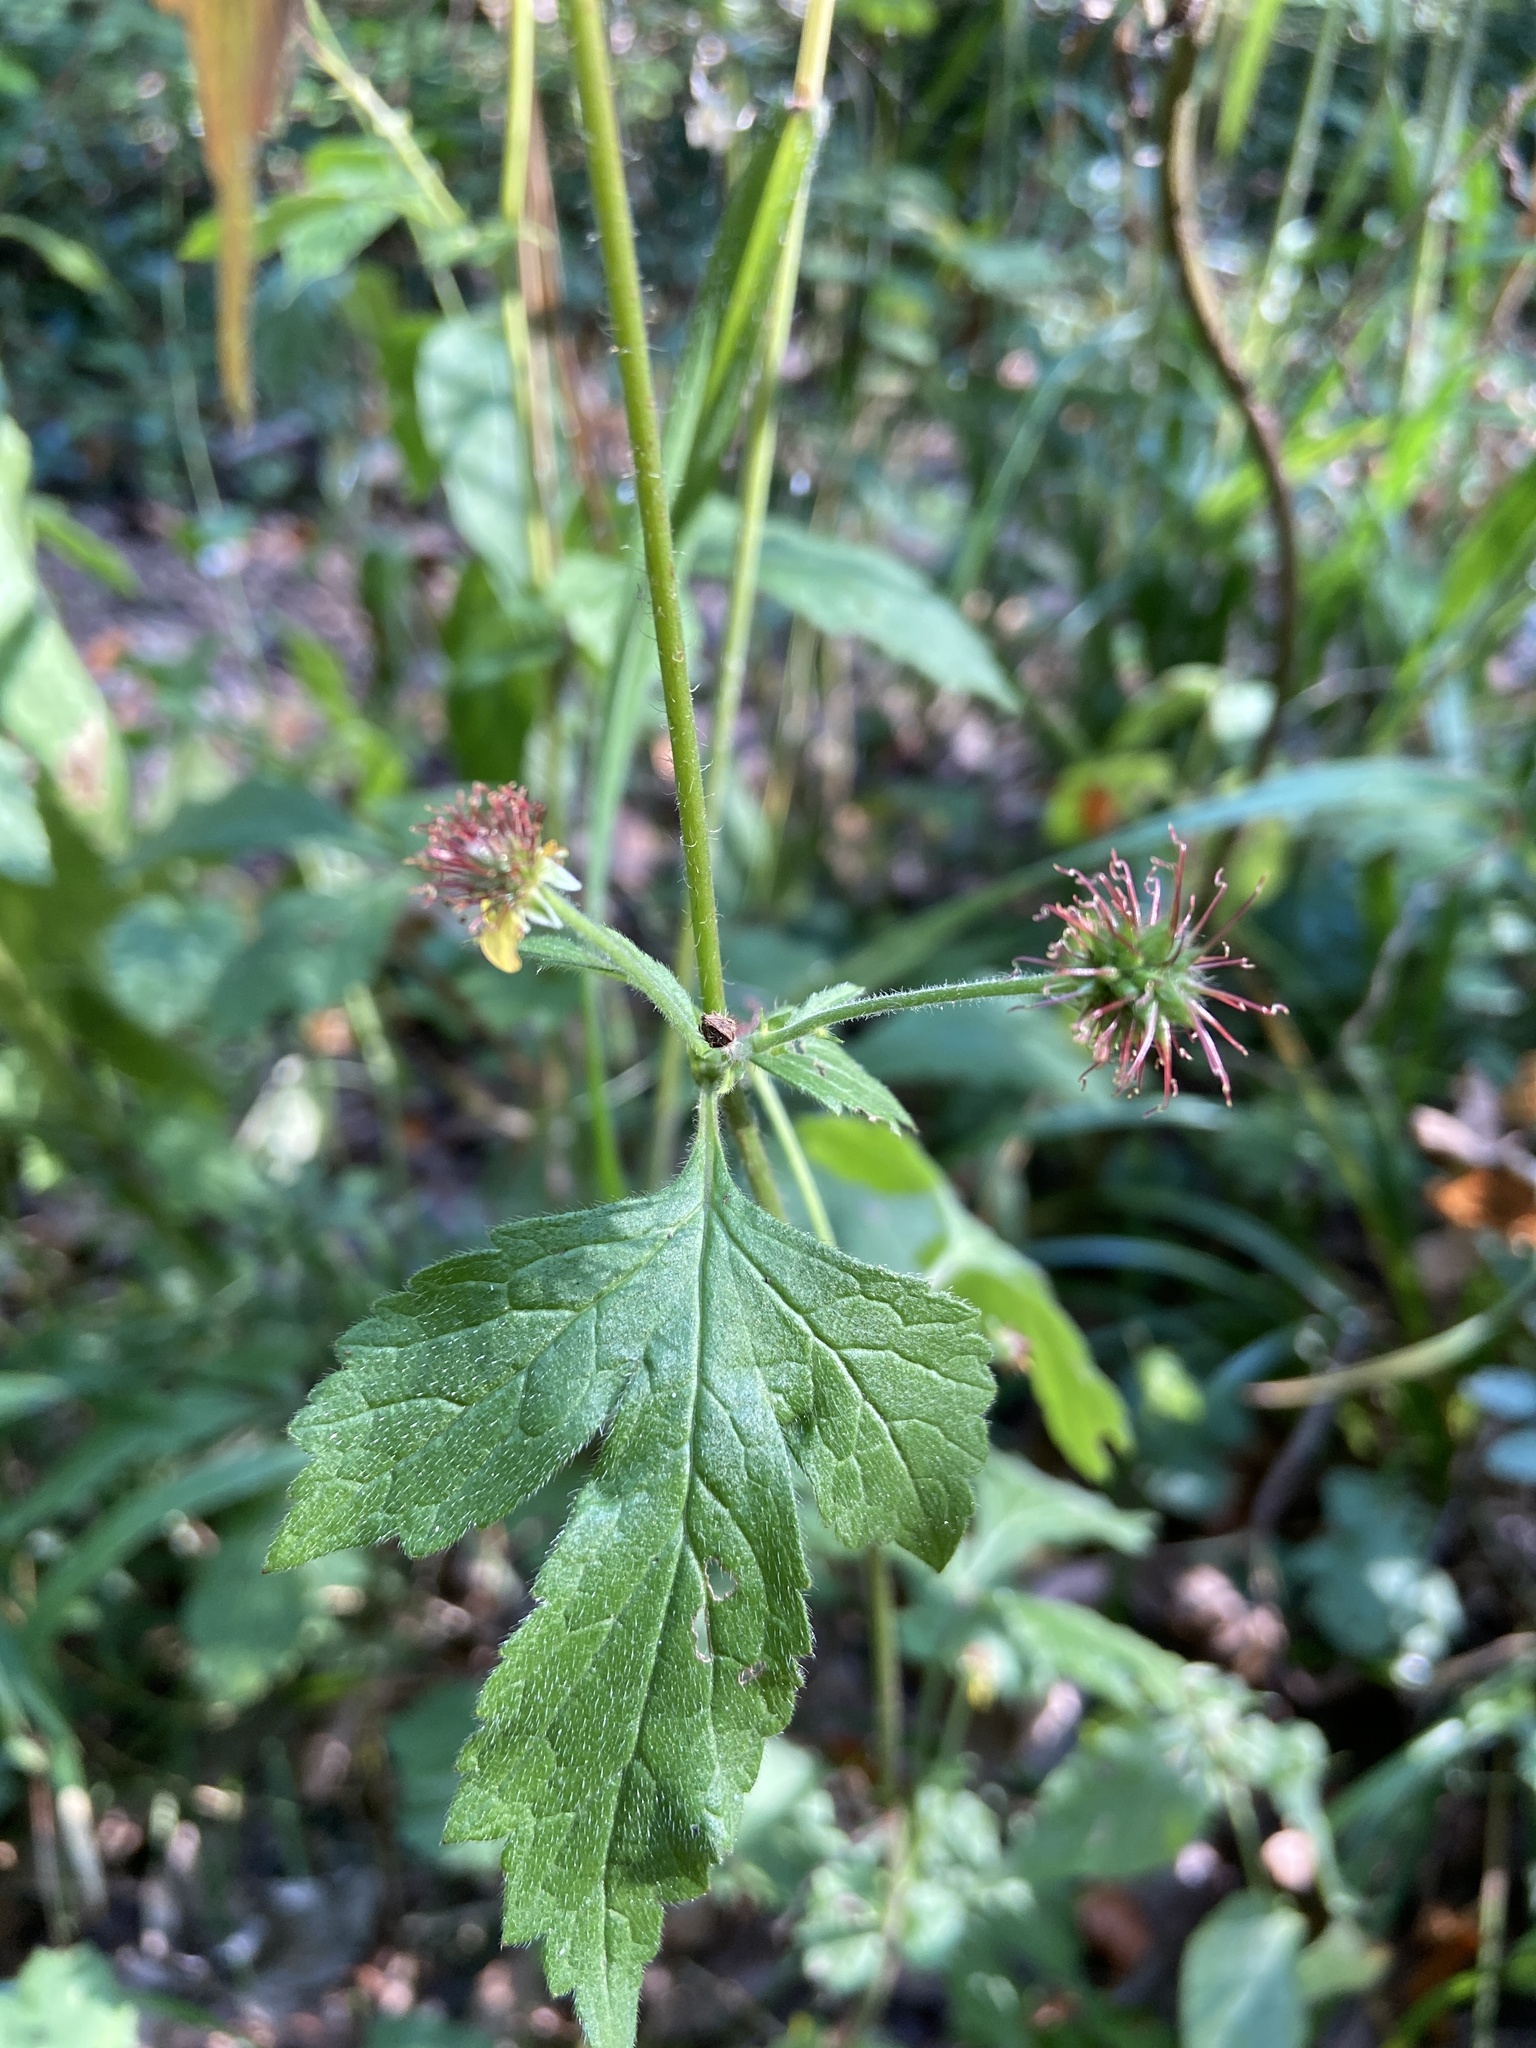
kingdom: Plantae
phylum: Tracheophyta
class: Magnoliopsida
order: Rosales
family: Rosaceae
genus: Geum
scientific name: Geum urbanum
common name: Wood avens
